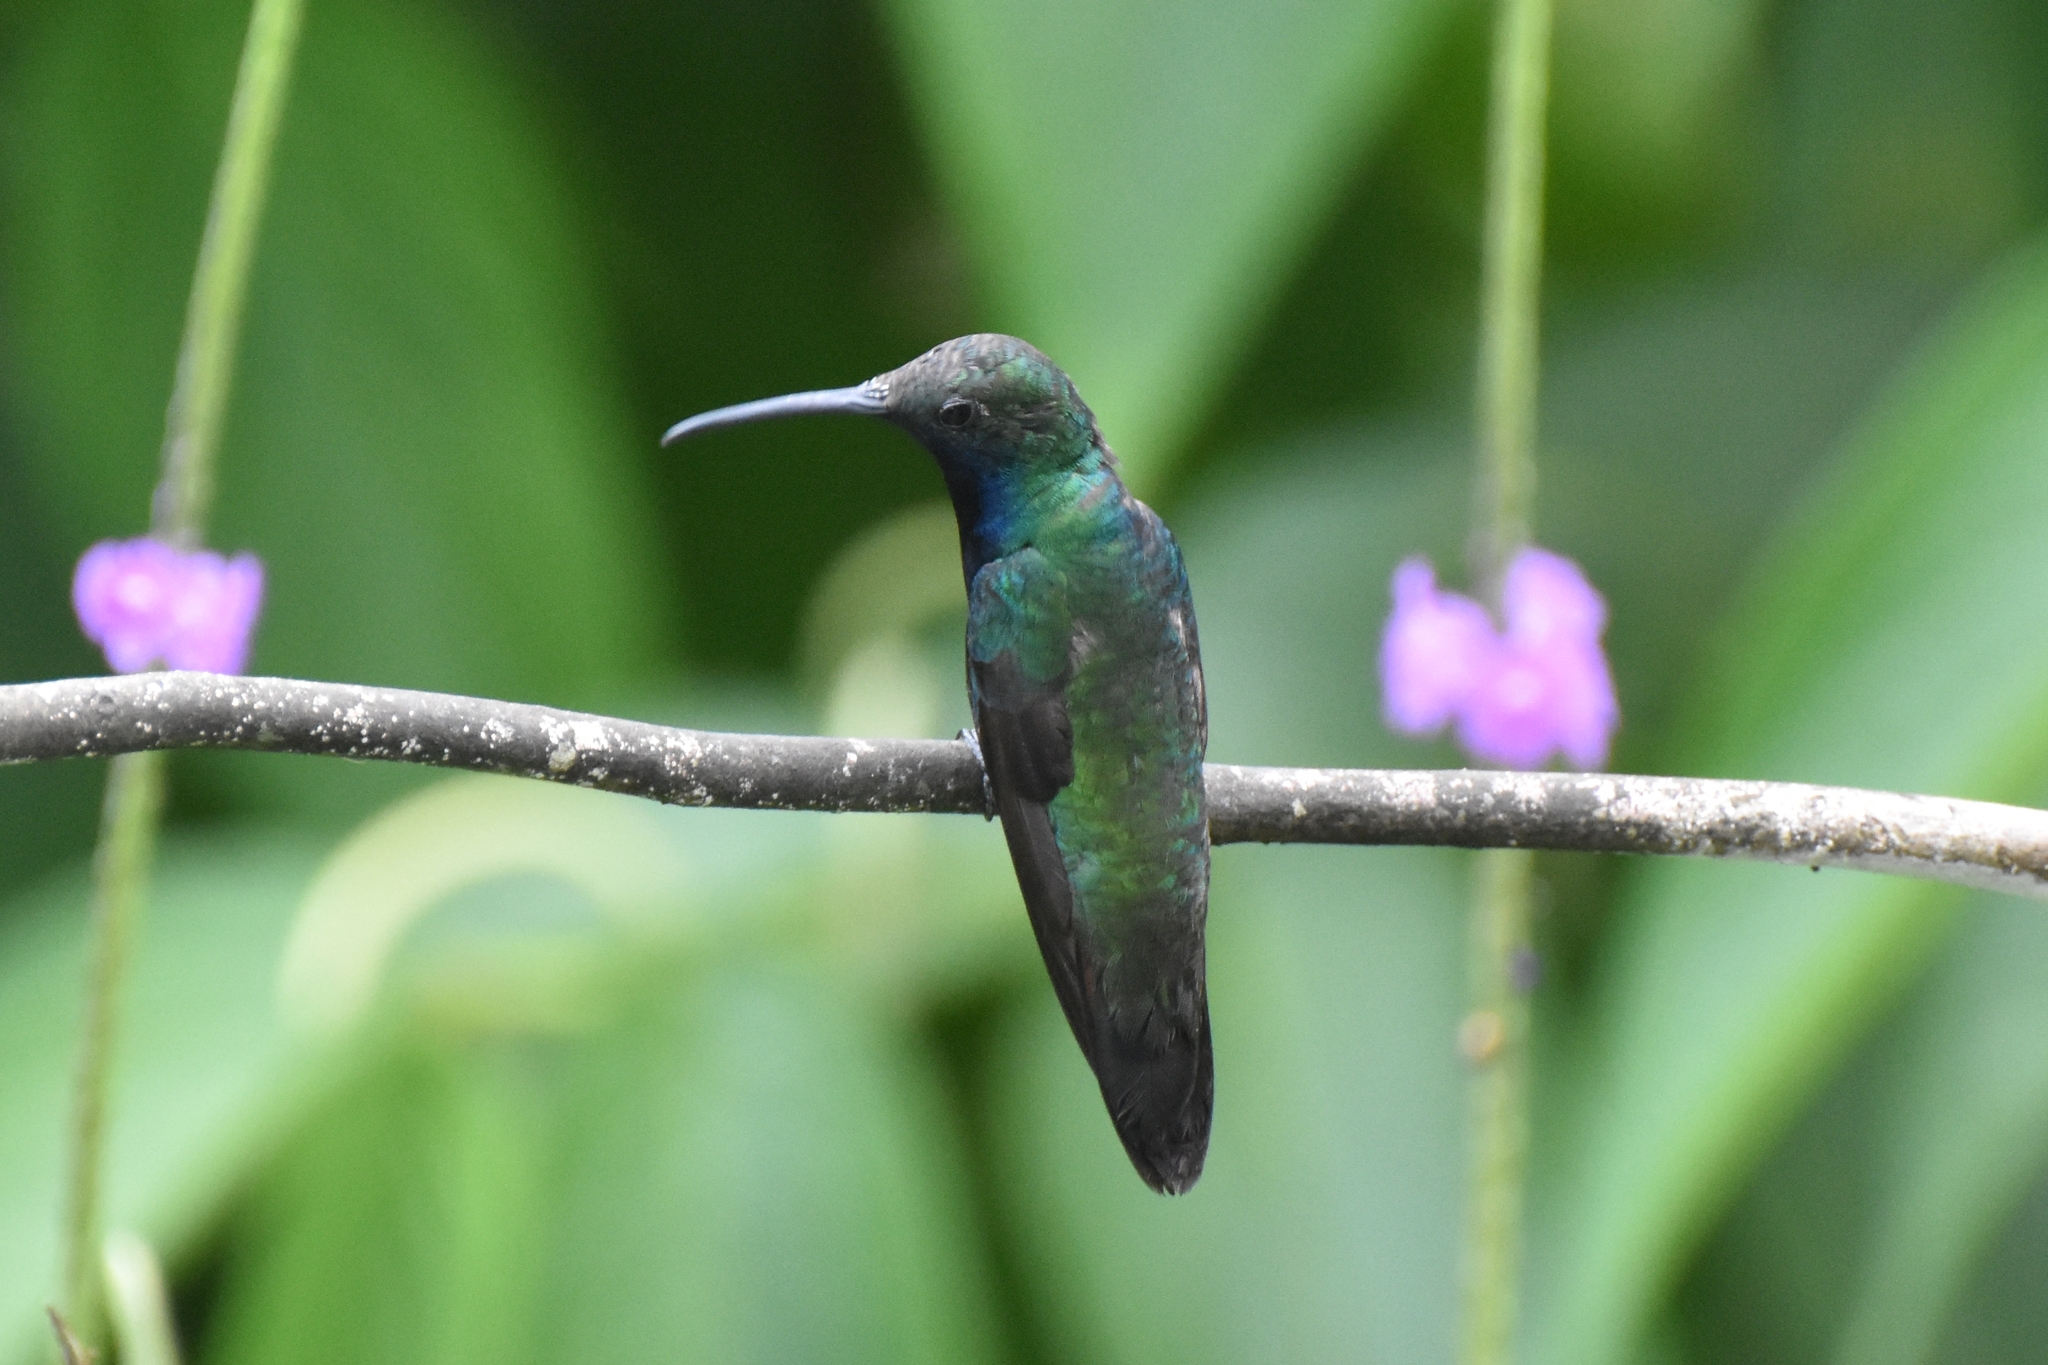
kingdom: Animalia
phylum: Chordata
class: Aves
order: Apodiformes
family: Trochilidae
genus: Anthracothorax
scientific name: Anthracothorax nigricollis
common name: Black-throated mango
